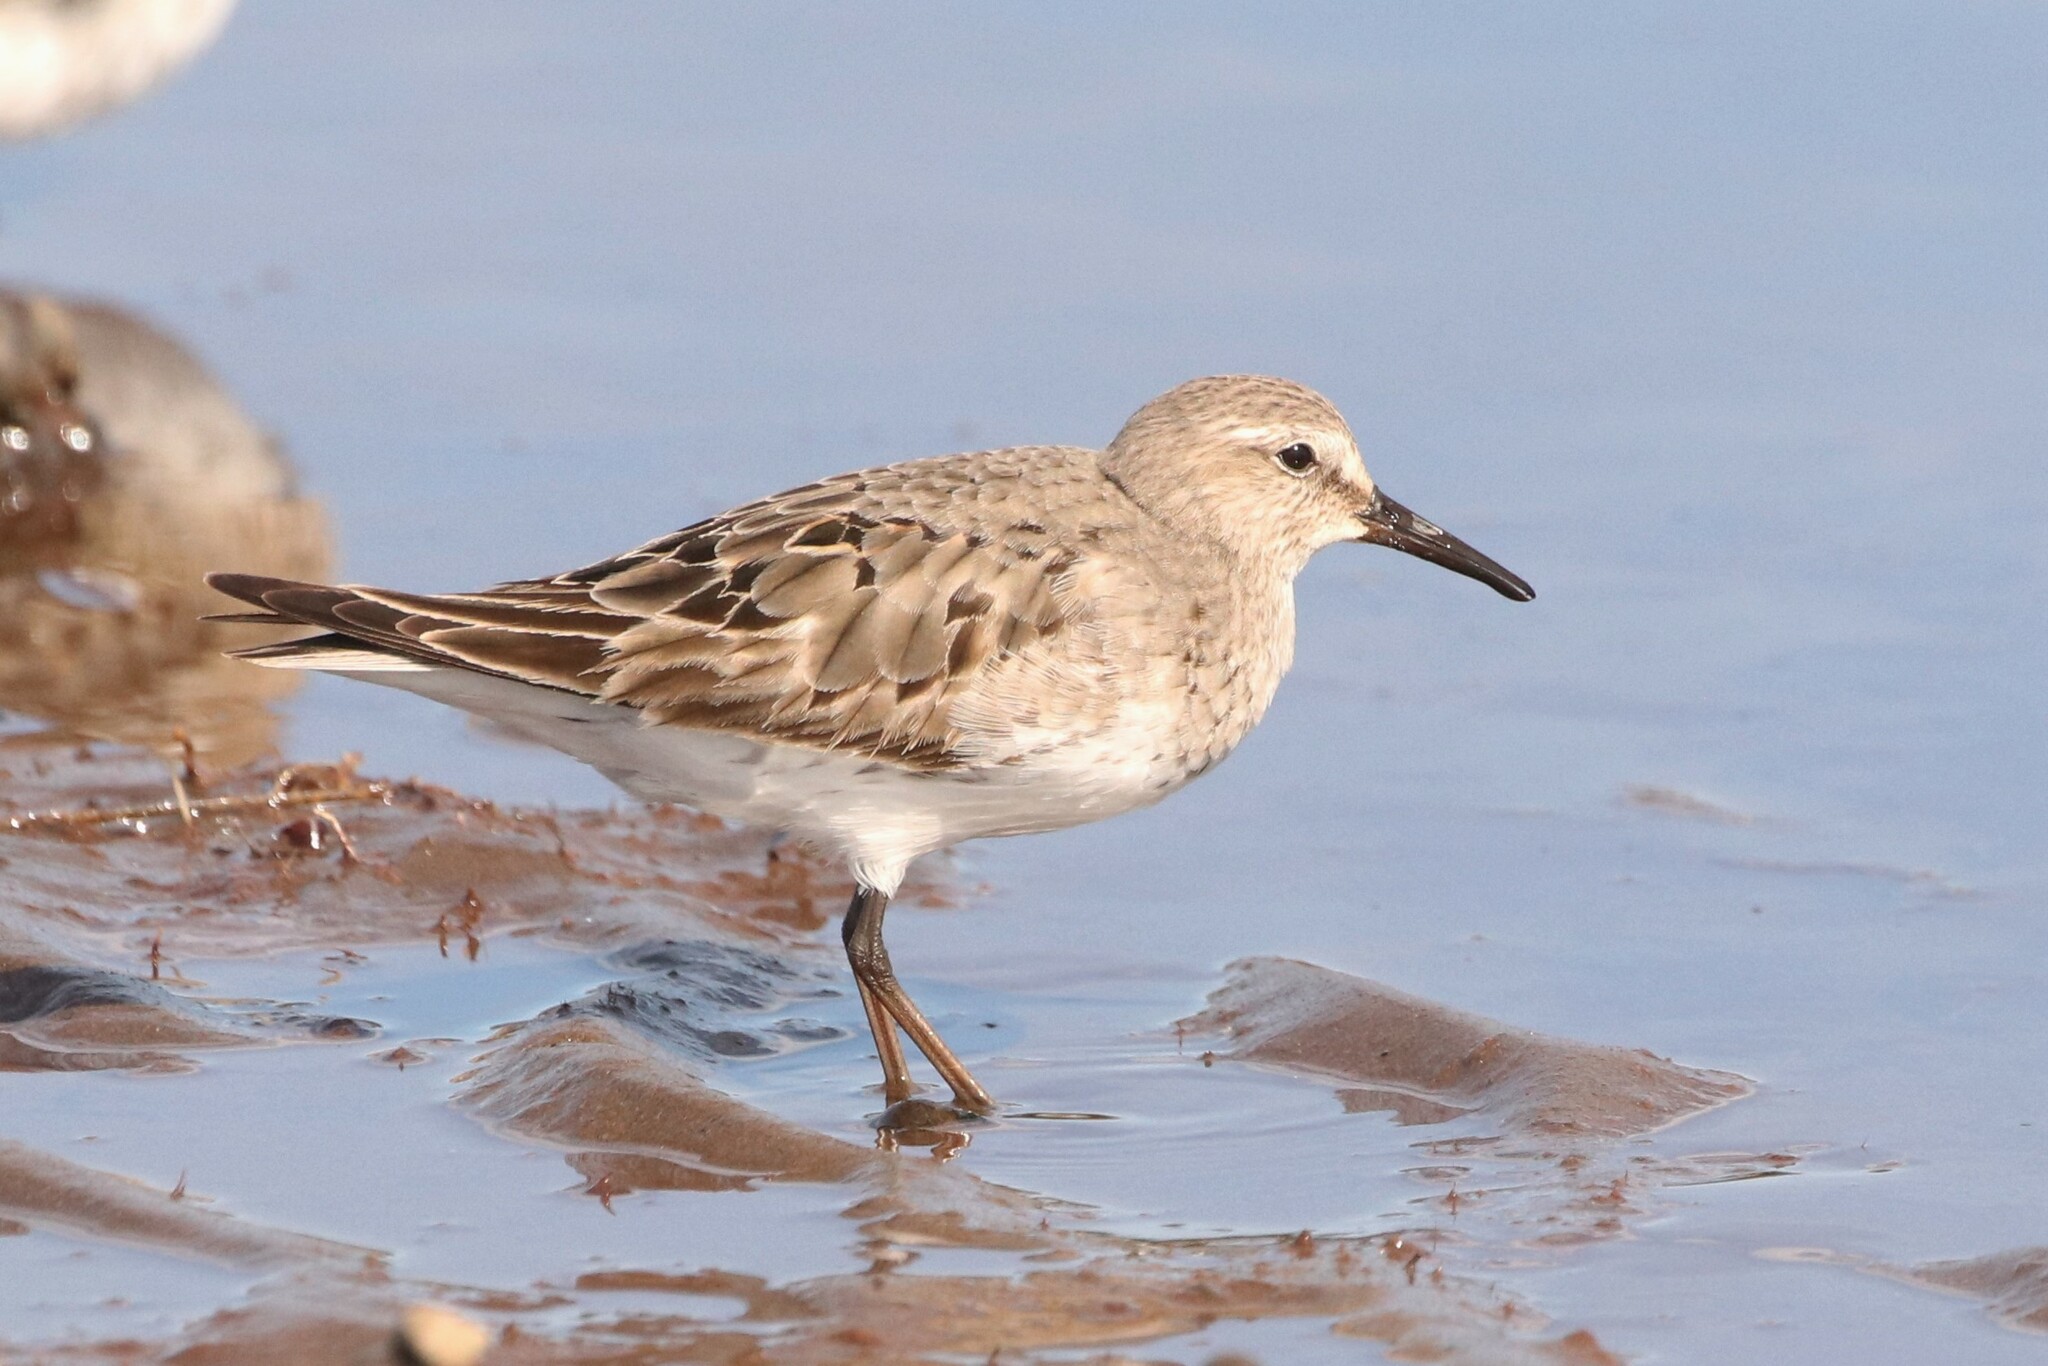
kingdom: Animalia
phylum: Chordata
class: Aves
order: Charadriiformes
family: Scolopacidae
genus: Calidris
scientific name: Calidris fuscicollis
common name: White-rumped sandpiper
